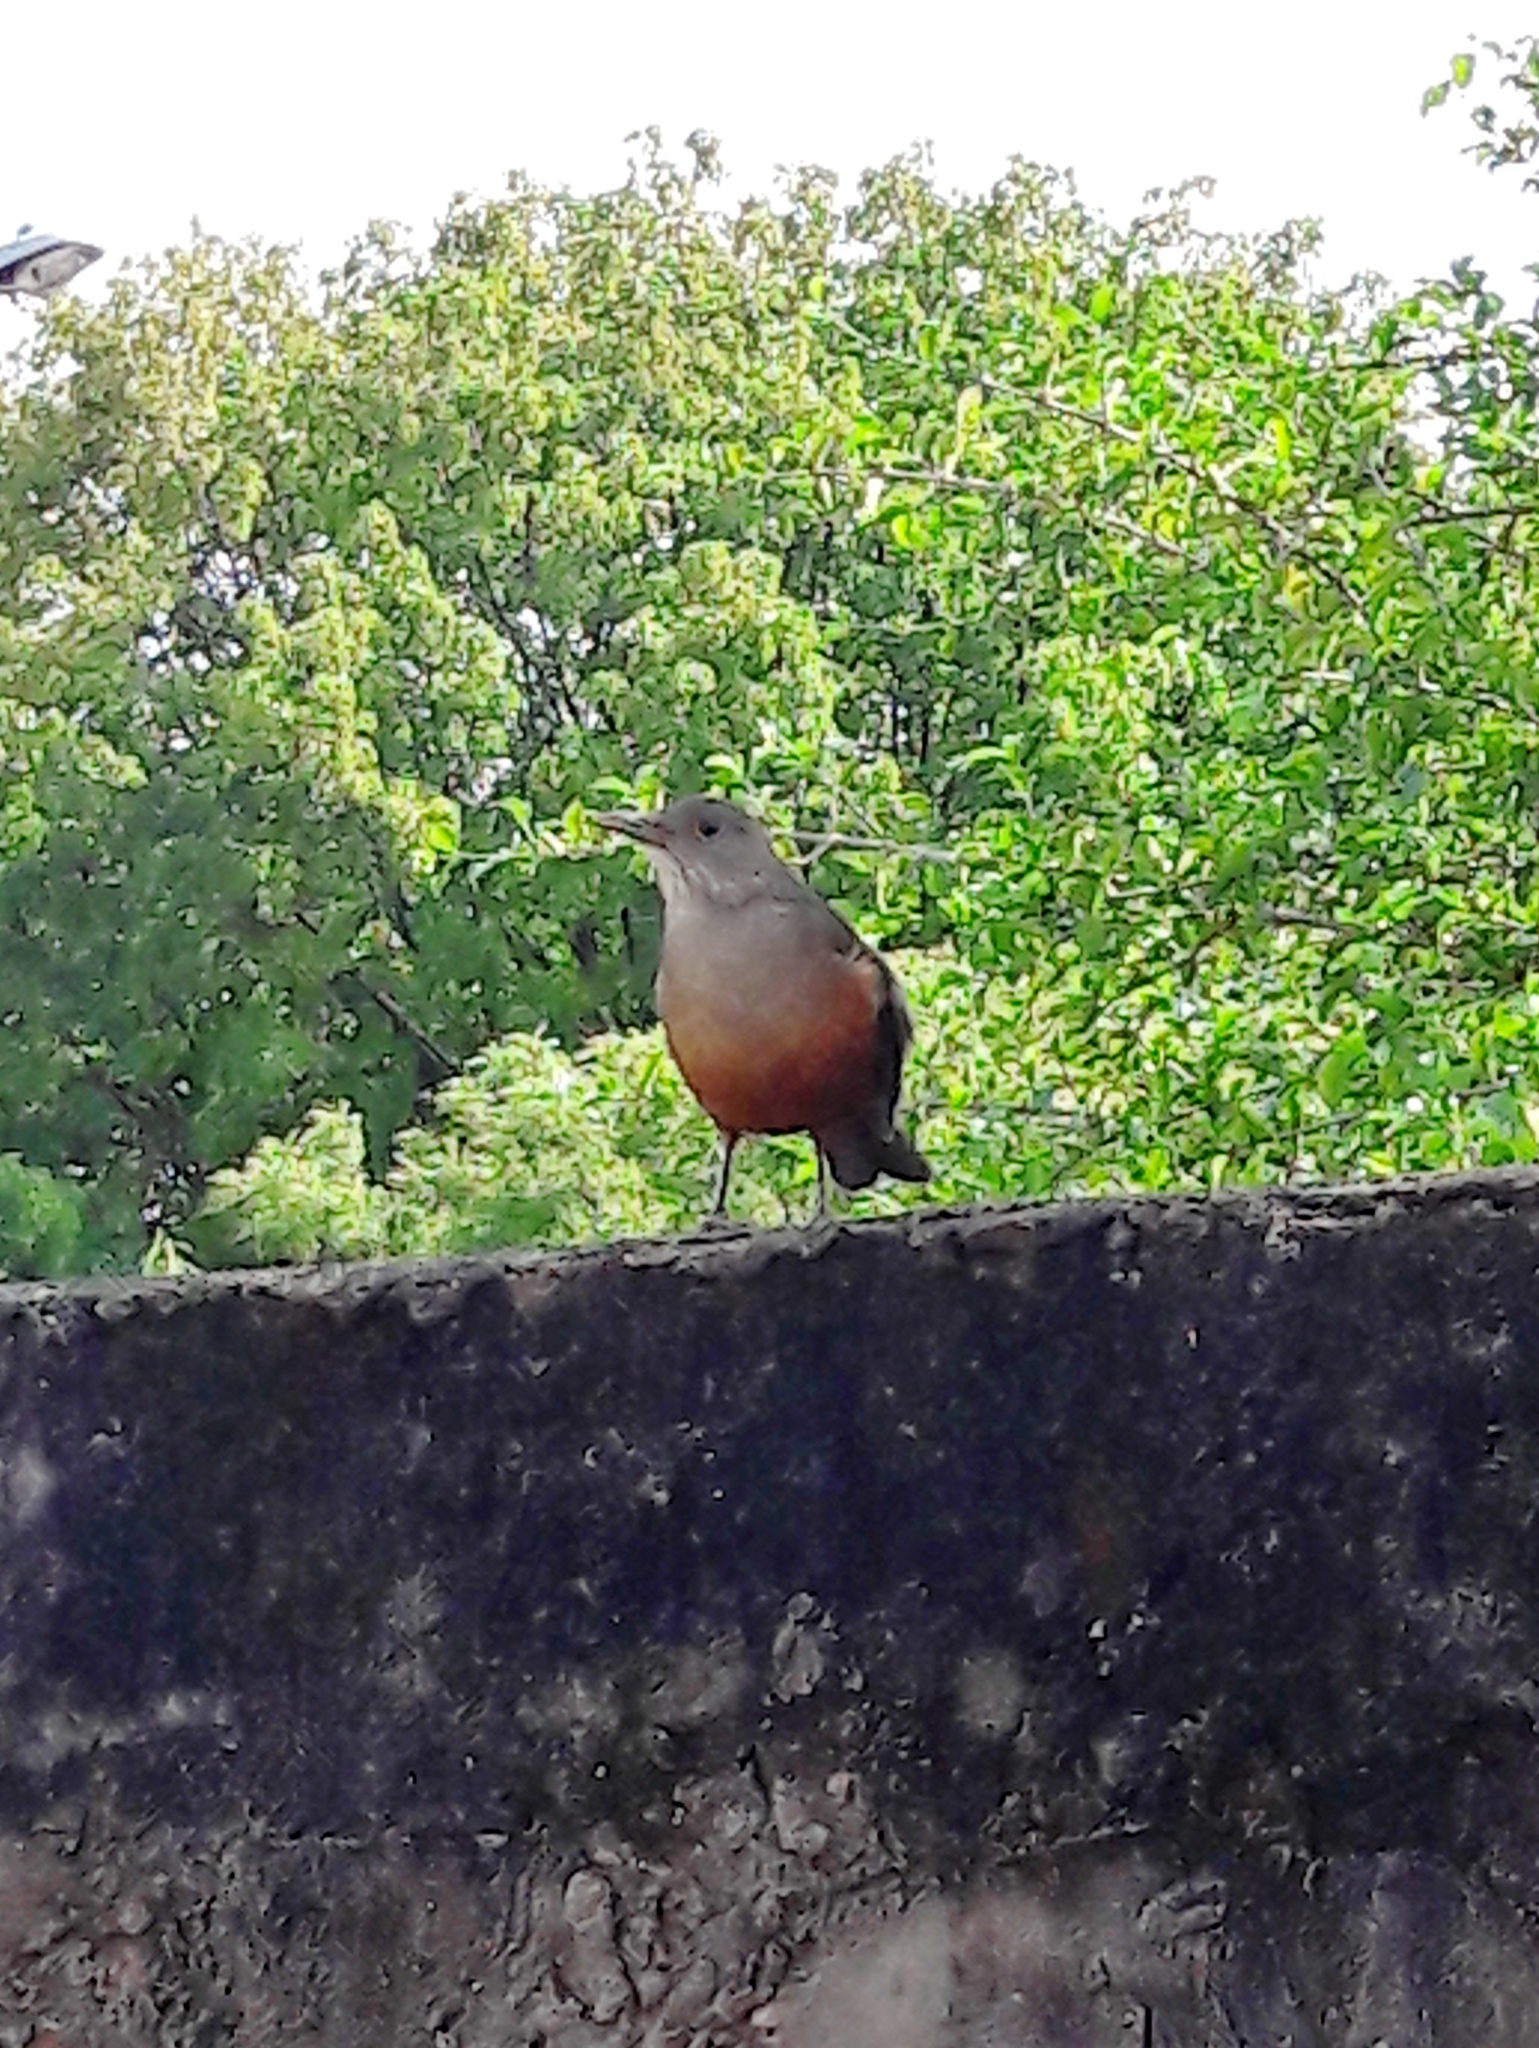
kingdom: Animalia
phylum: Chordata
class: Aves
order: Passeriformes
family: Turdidae
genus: Turdus
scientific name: Turdus rufiventris
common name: Rufous-bellied thrush
